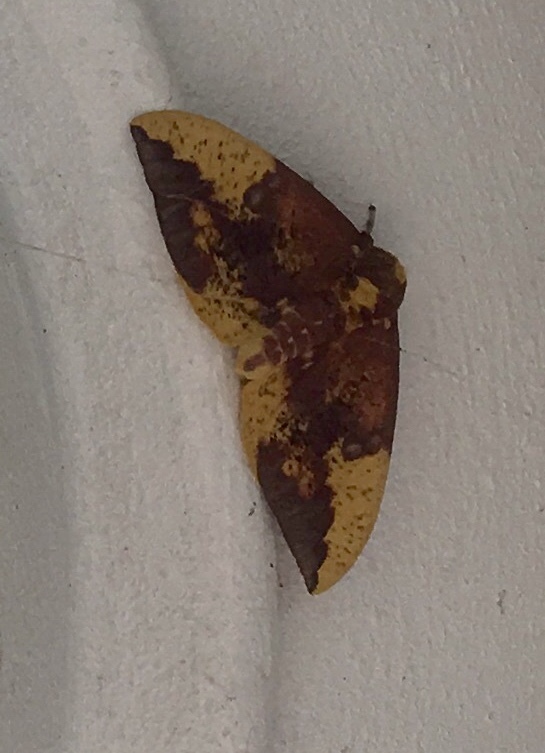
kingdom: Animalia
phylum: Arthropoda
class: Insecta
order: Lepidoptera
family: Saturniidae
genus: Eacles
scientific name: Eacles imperialis
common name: Imperial moth
